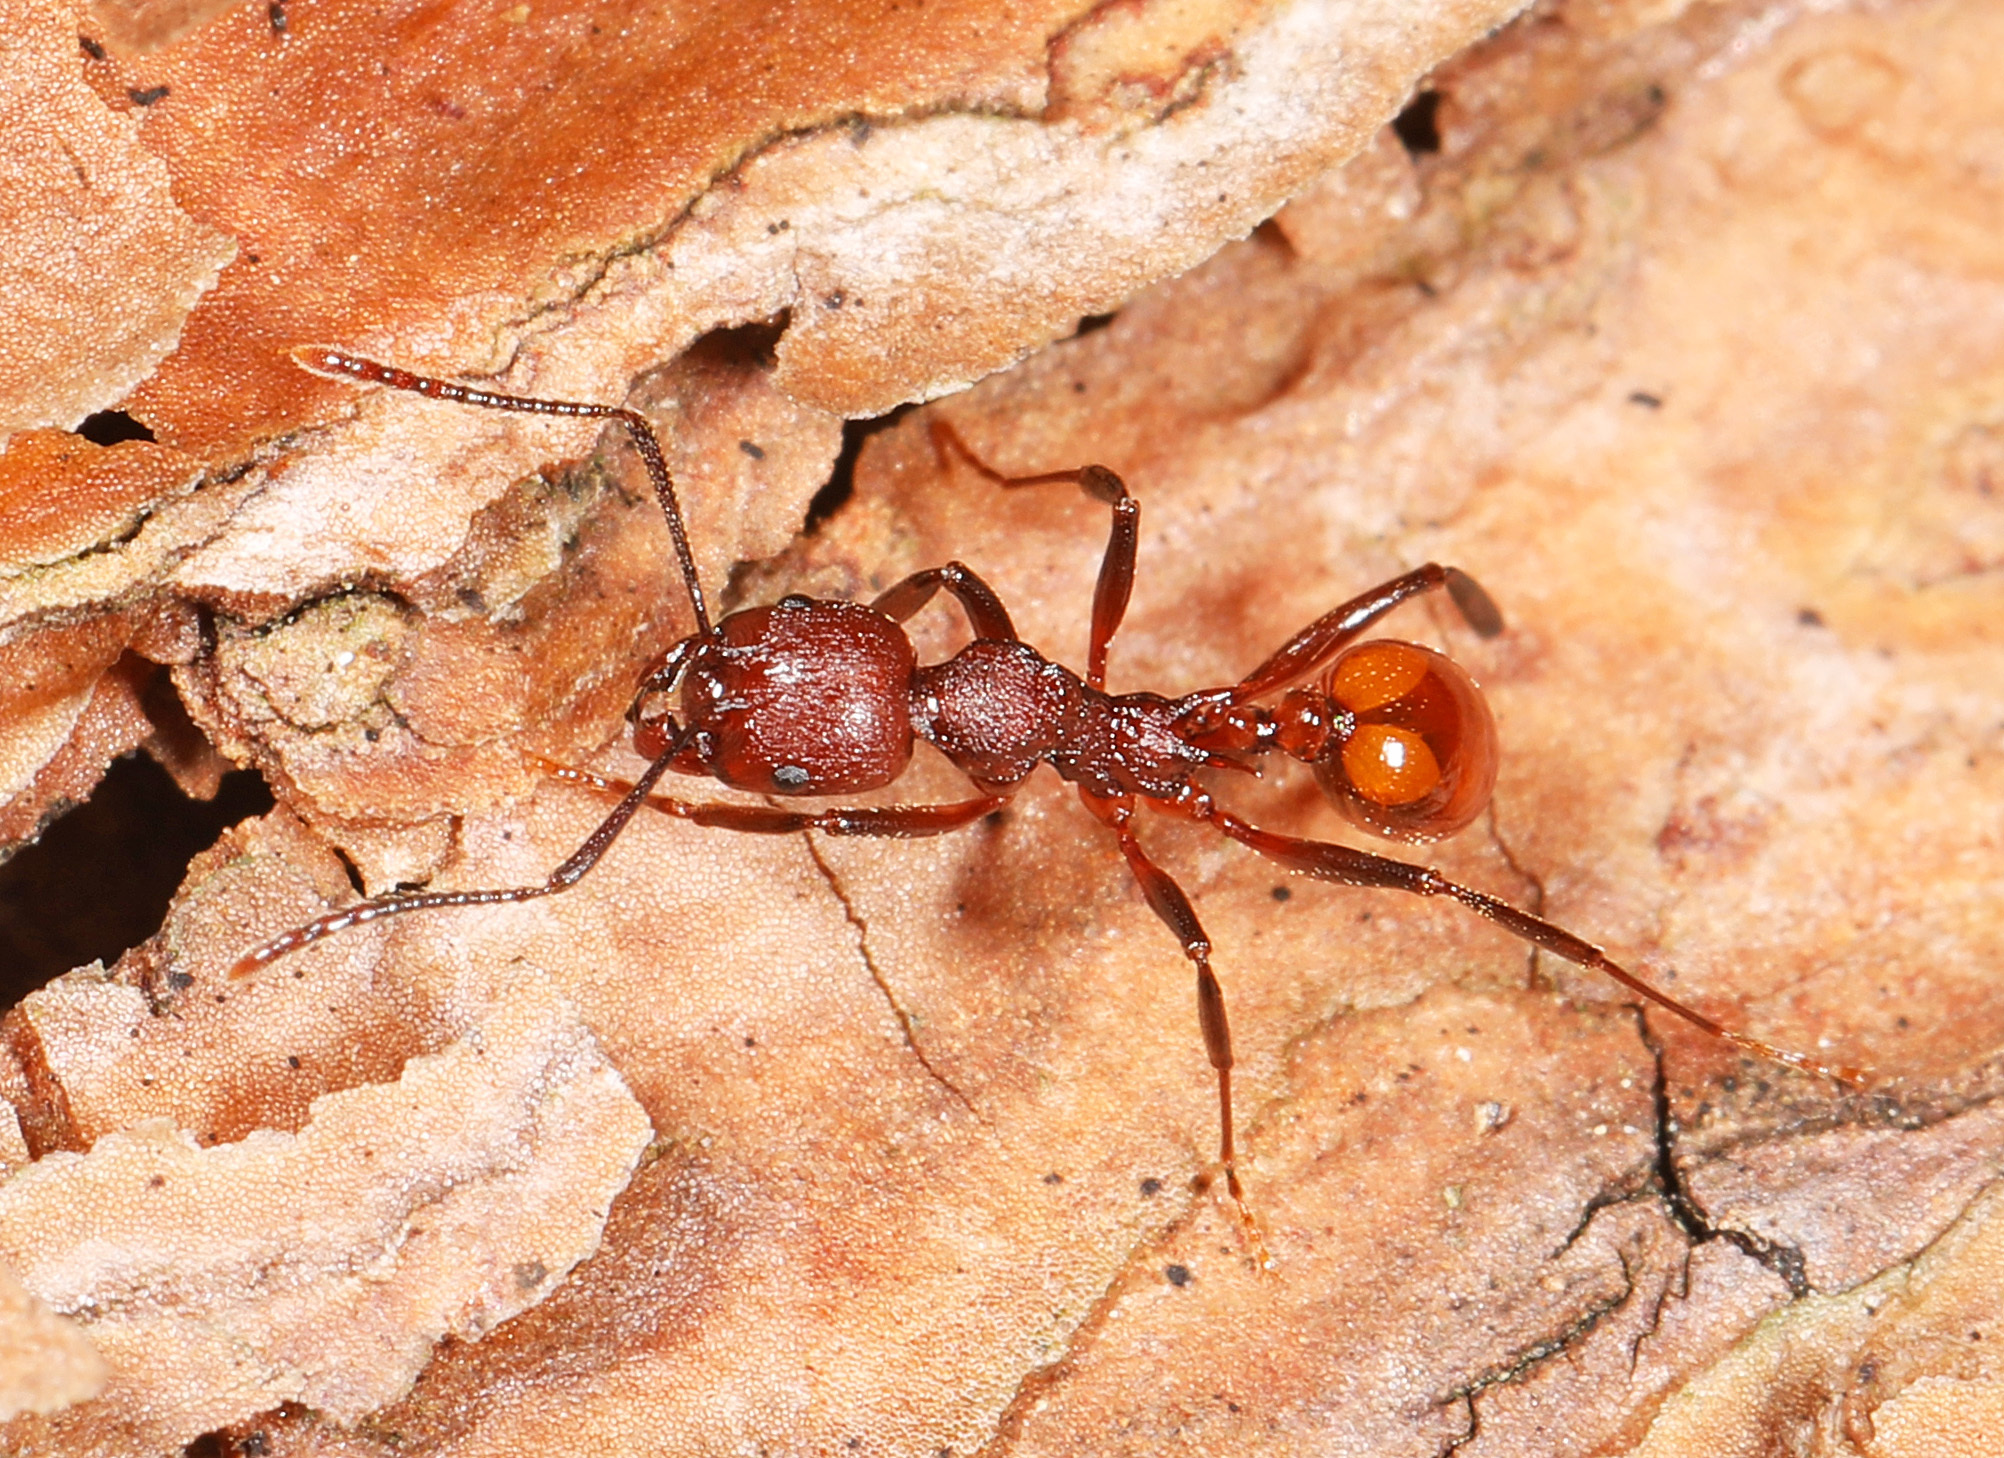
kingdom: Animalia
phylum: Arthropoda
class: Insecta
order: Hymenoptera
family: Formicidae
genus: Aphaenogaster
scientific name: Aphaenogaster tennesseensis
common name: Tennessee thread-waisted ant
